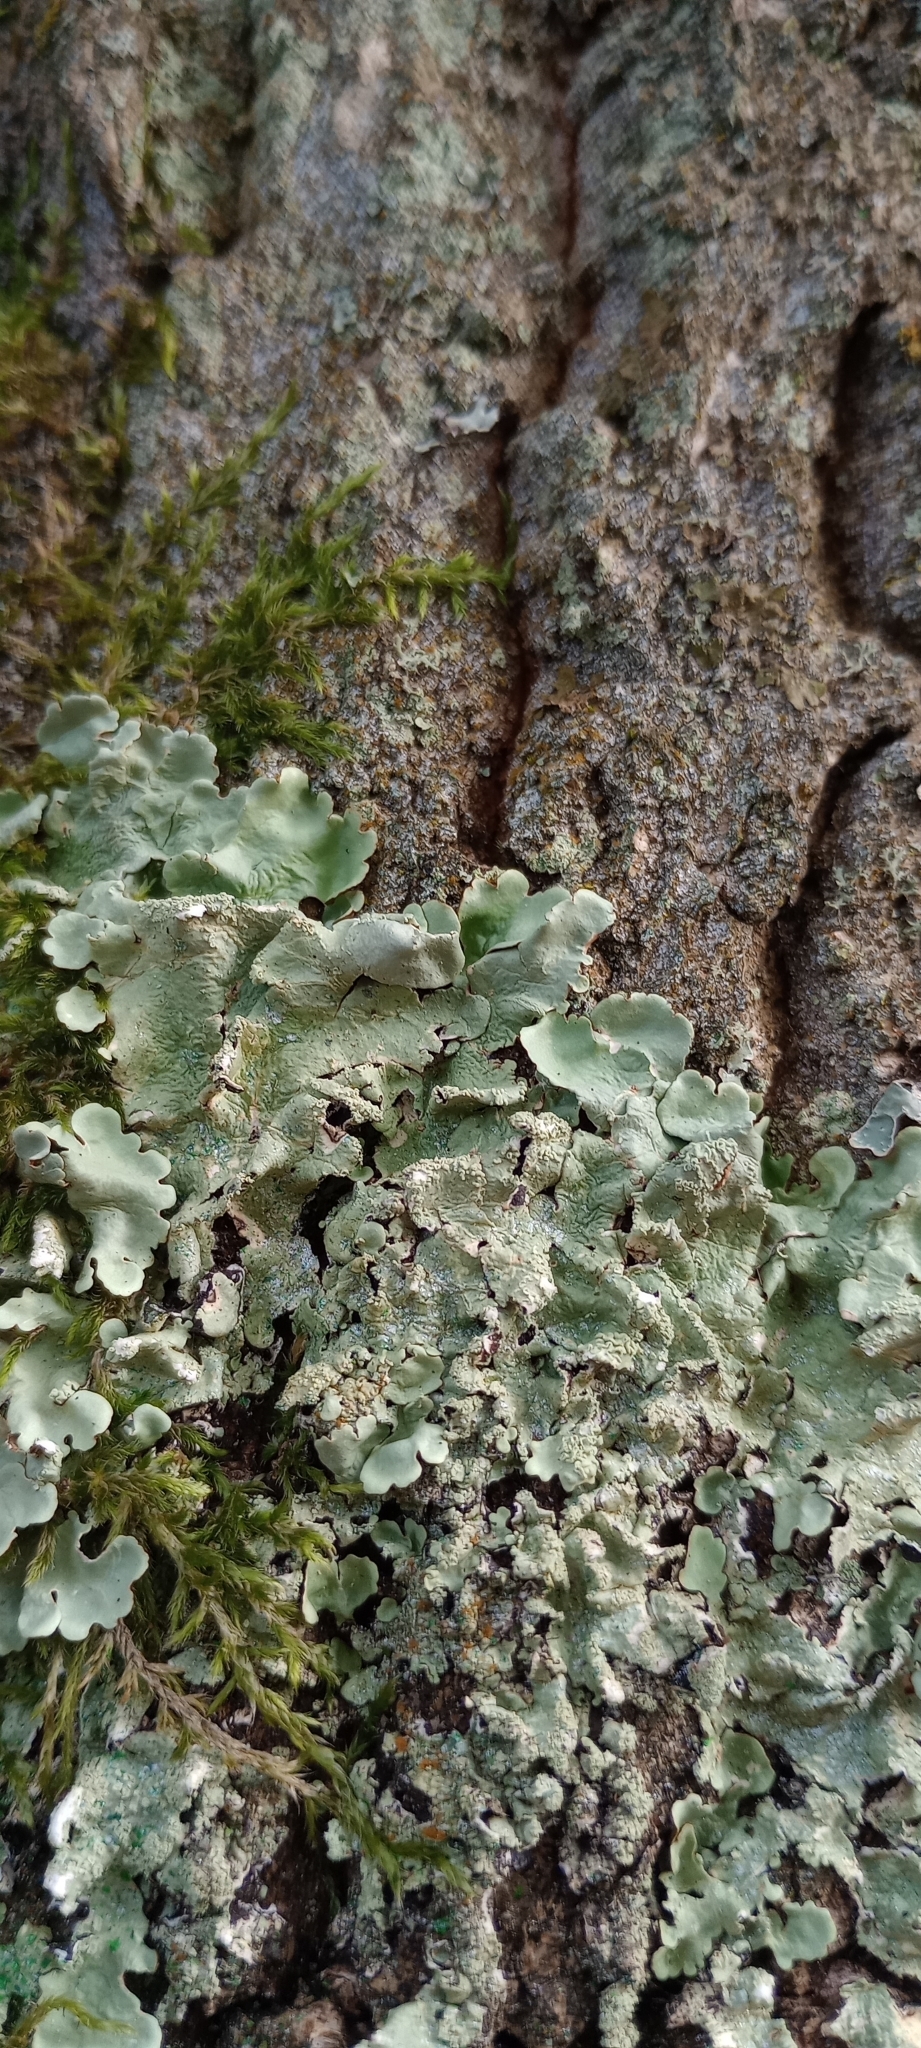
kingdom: Fungi
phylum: Ascomycota
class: Lecanoromycetes
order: Lecanorales
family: Parmeliaceae
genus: Flavoparmelia
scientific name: Flavoparmelia caperata
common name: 40-mile per hour lichen
